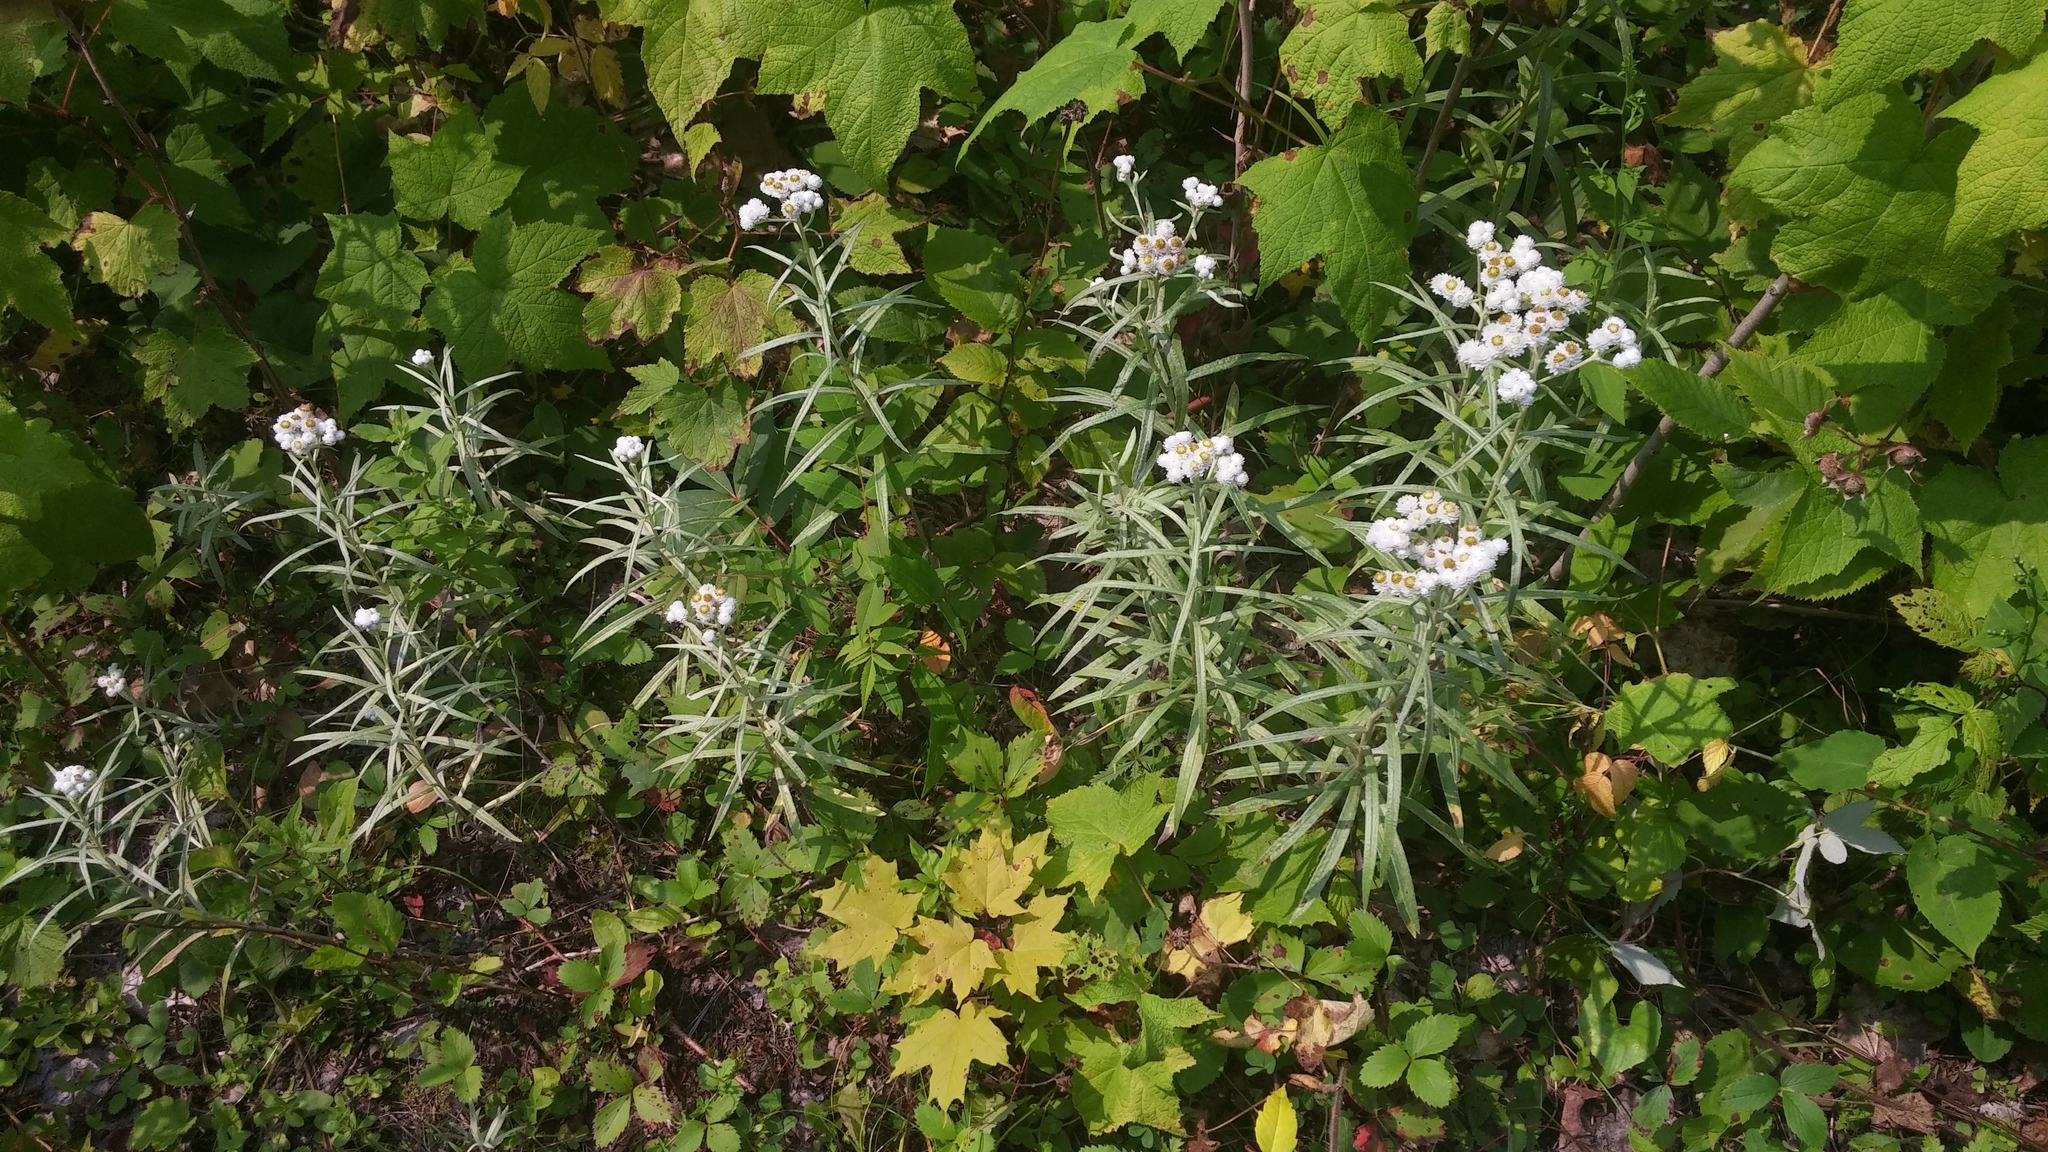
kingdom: Plantae
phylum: Tracheophyta
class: Magnoliopsida
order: Asterales
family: Asteraceae
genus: Anaphalis
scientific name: Anaphalis margaritacea
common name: Pearly everlasting
